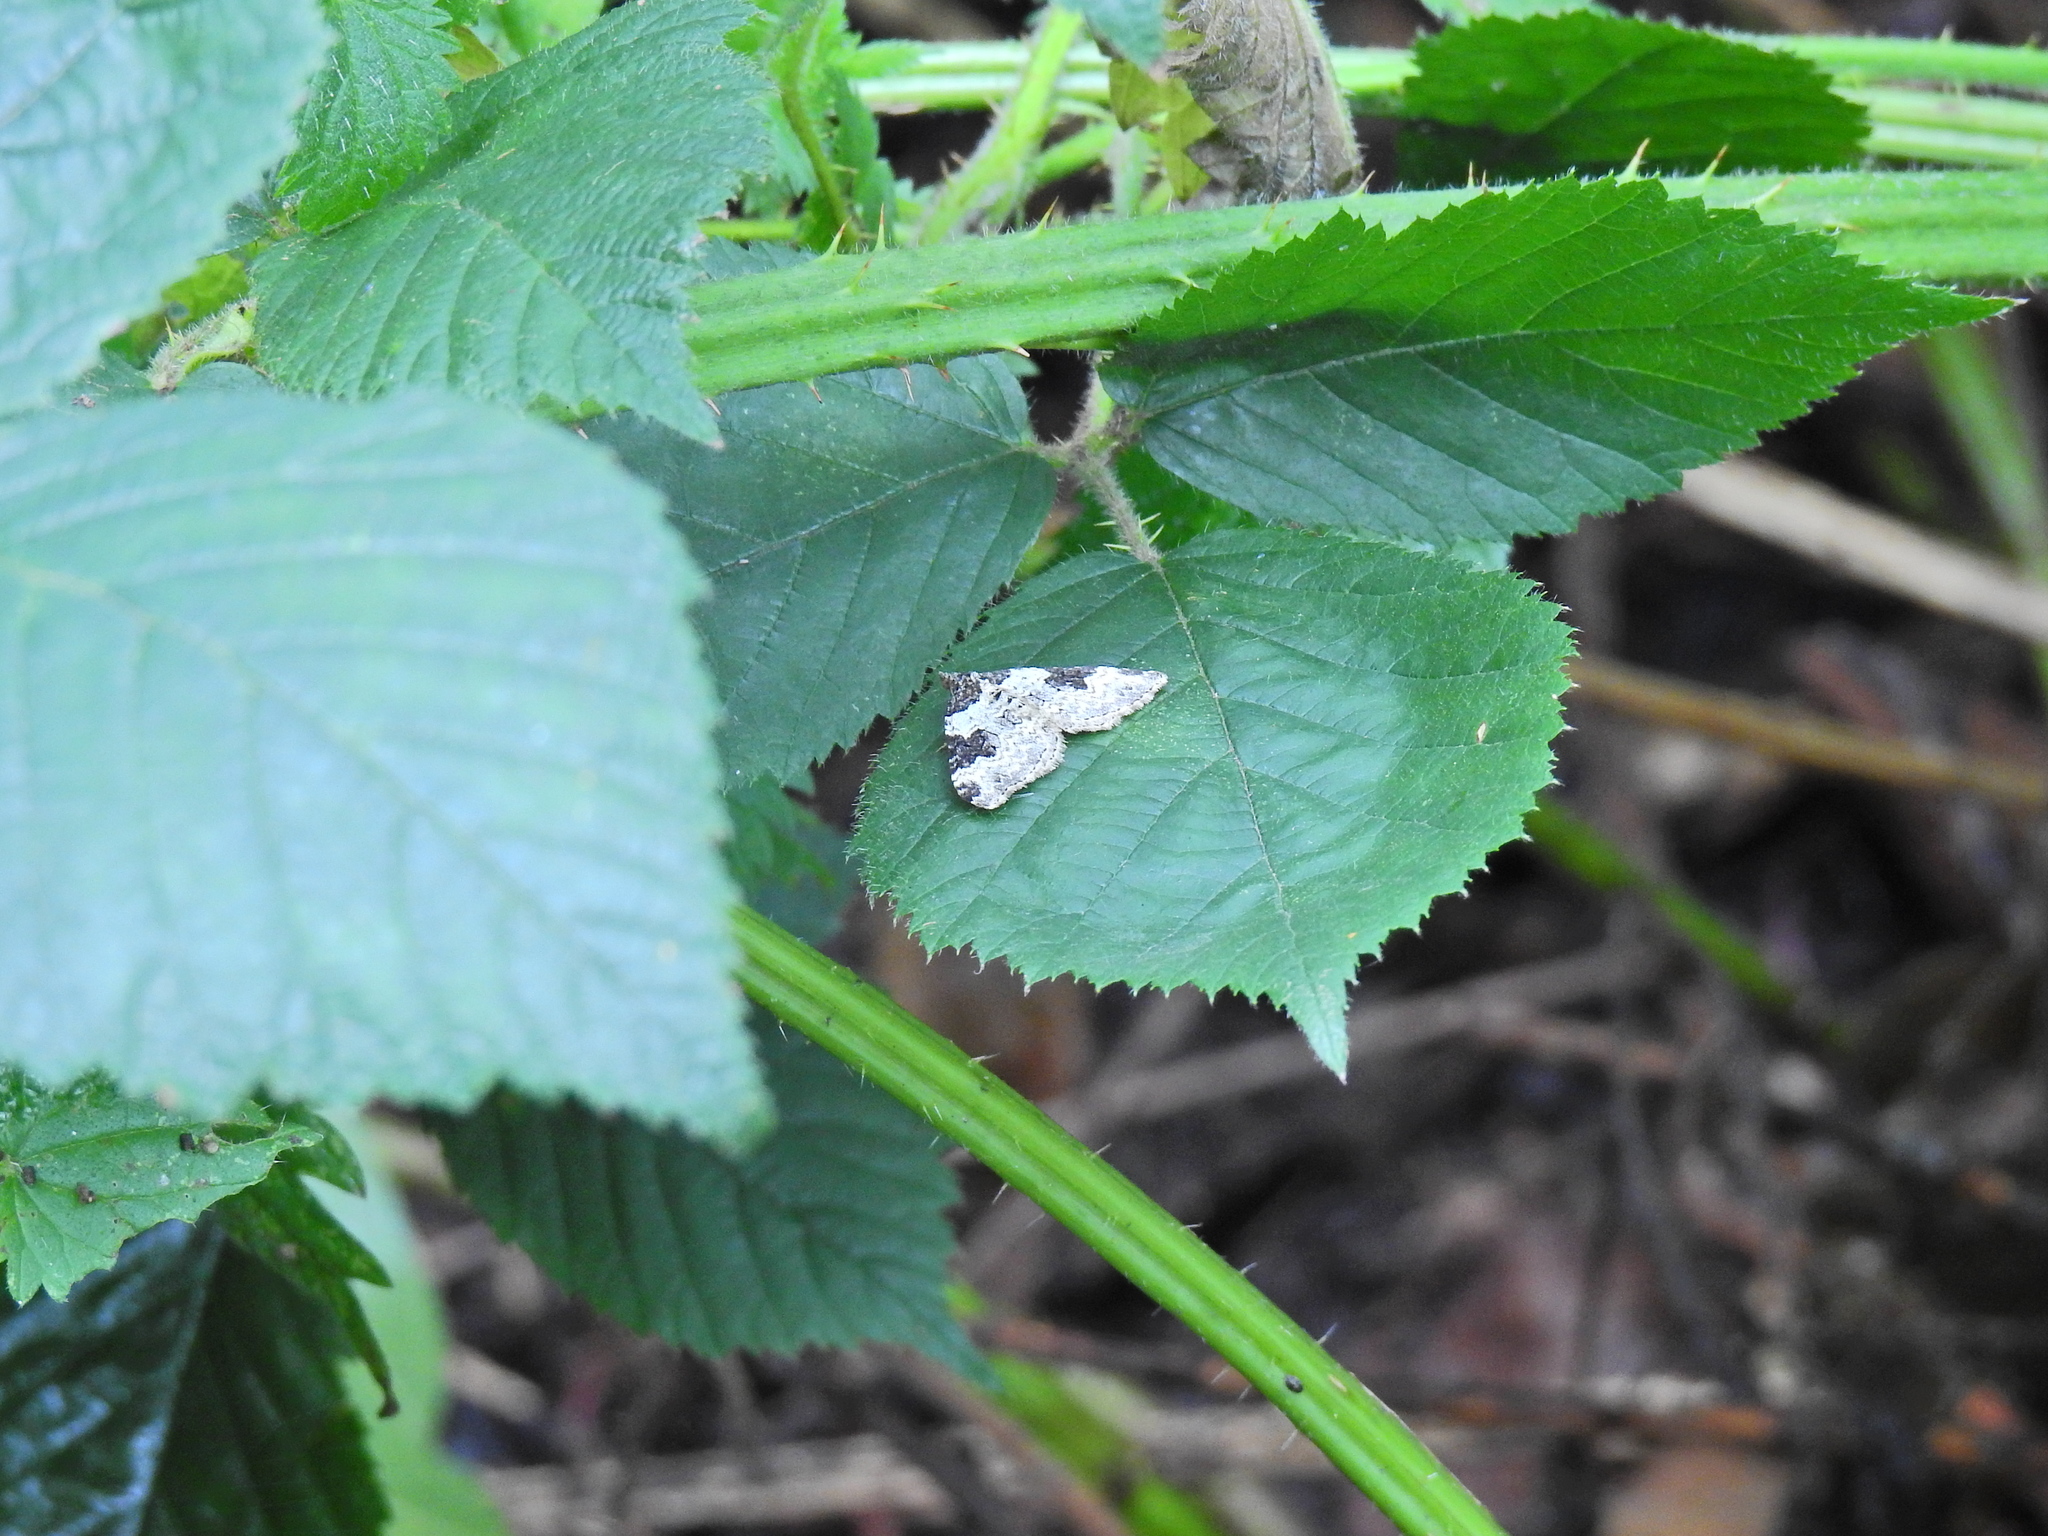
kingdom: Animalia
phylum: Arthropoda
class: Insecta
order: Lepidoptera
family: Geometridae
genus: Xanthorhoe
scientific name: Xanthorhoe fluctuata
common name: Garden carpet
